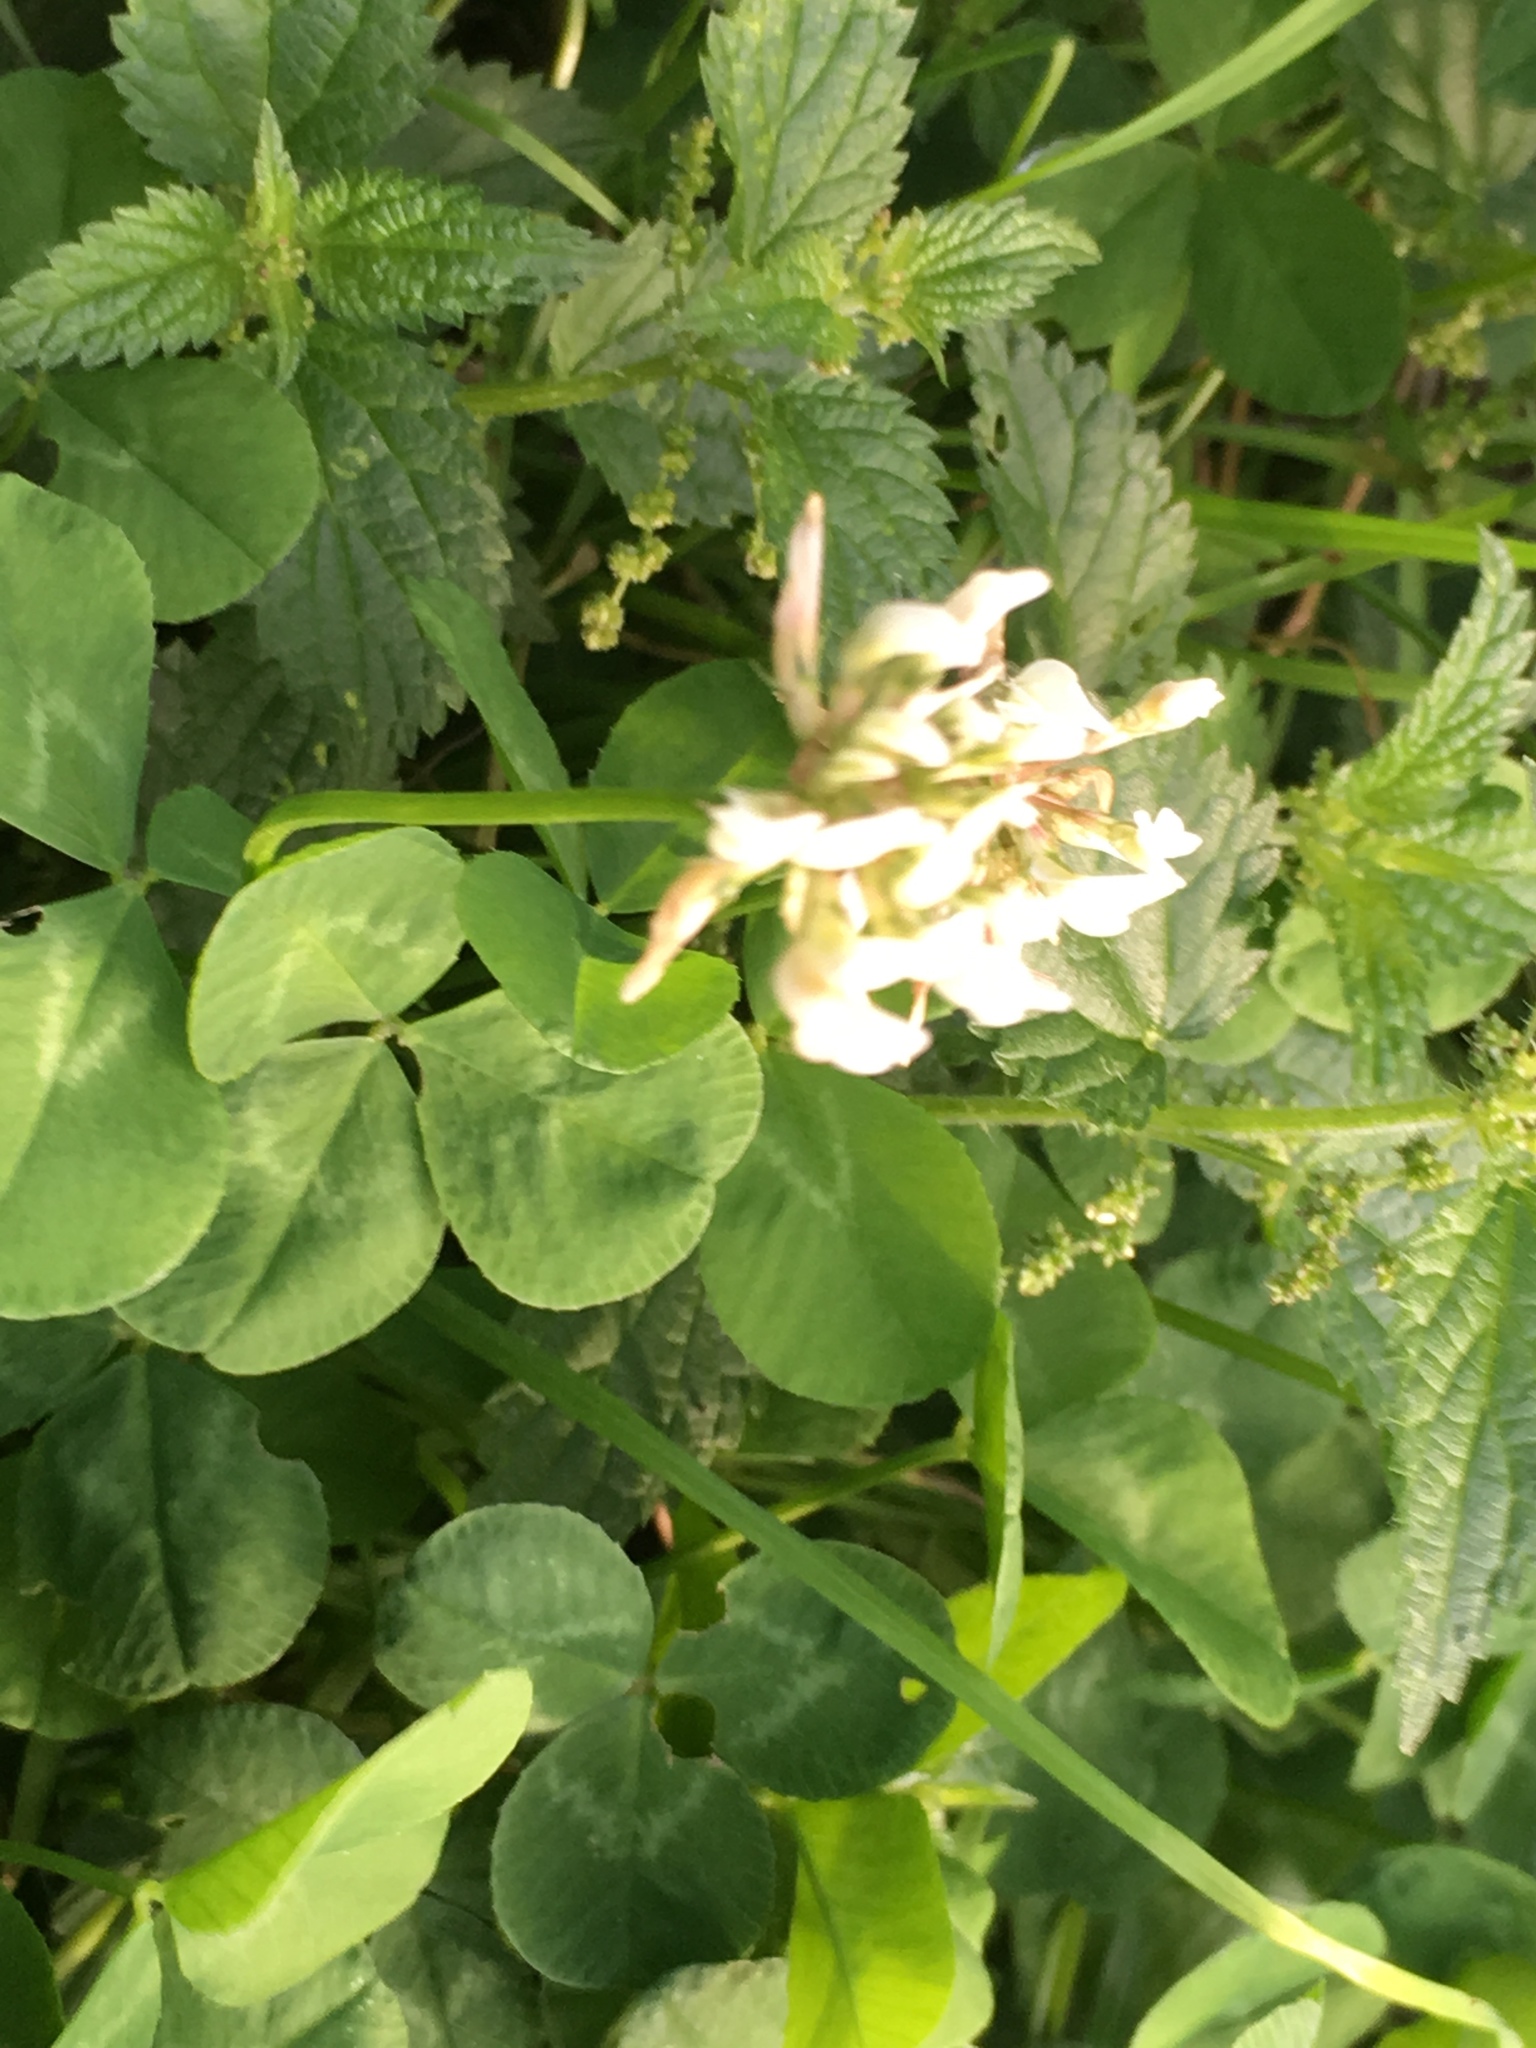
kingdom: Plantae
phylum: Tracheophyta
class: Magnoliopsida
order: Fabales
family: Fabaceae
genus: Trifolium
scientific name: Trifolium repens
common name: White clover
